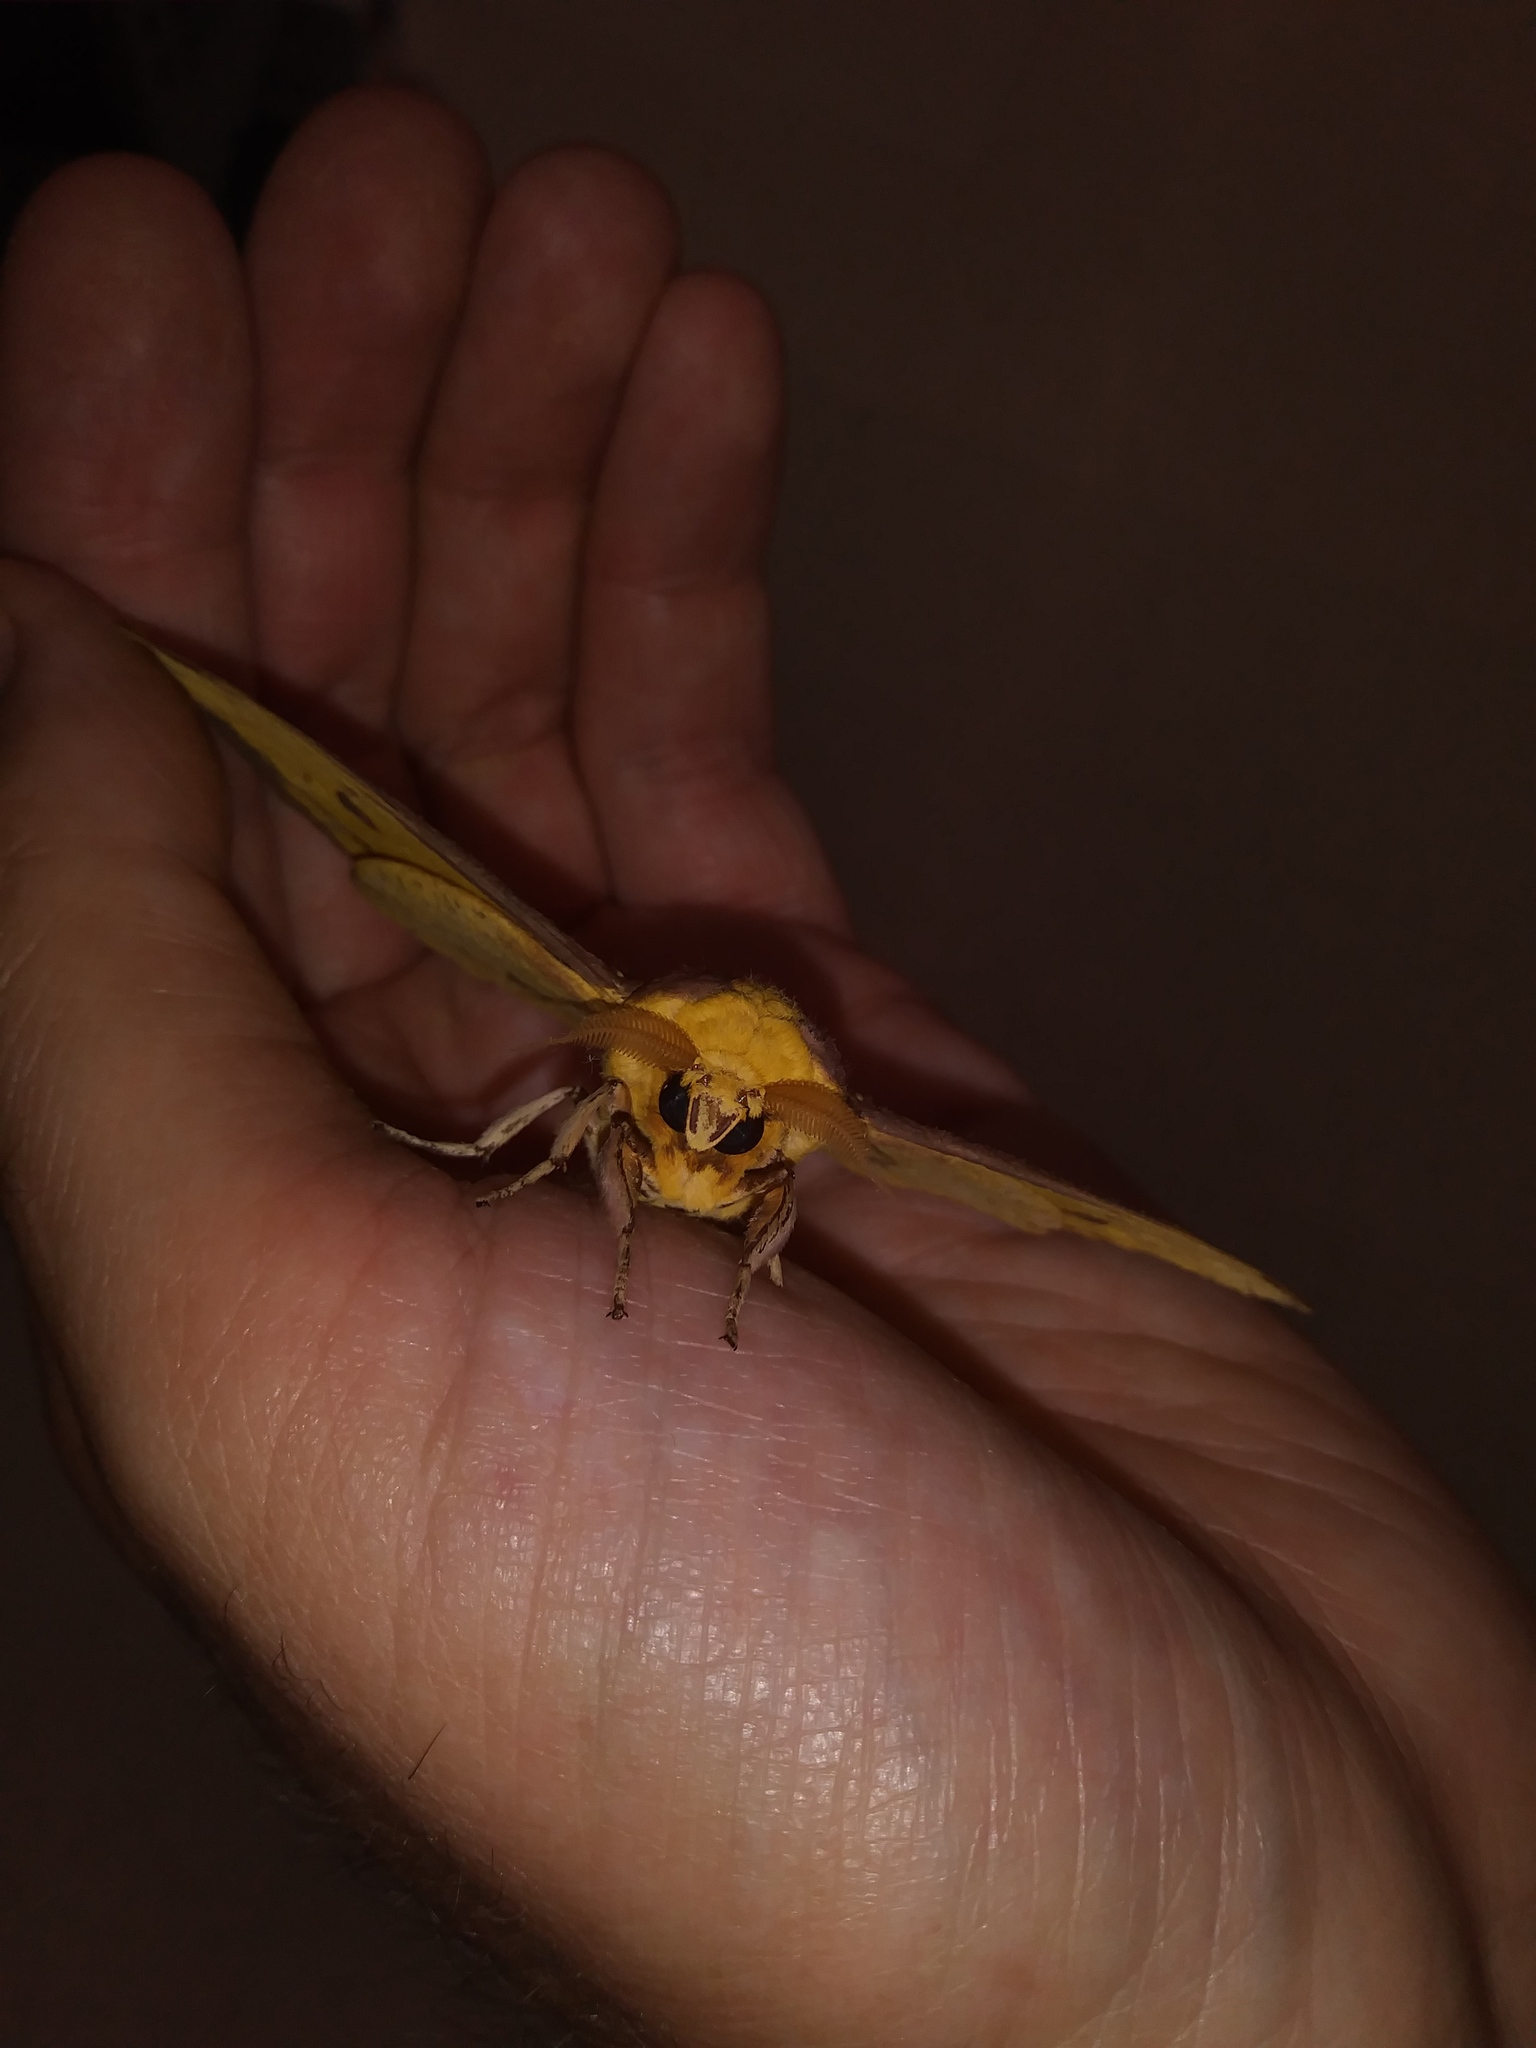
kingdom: Animalia
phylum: Arthropoda
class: Insecta
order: Lepidoptera
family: Saturniidae
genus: Eacles
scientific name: Eacles imperialis
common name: Imperial moth
